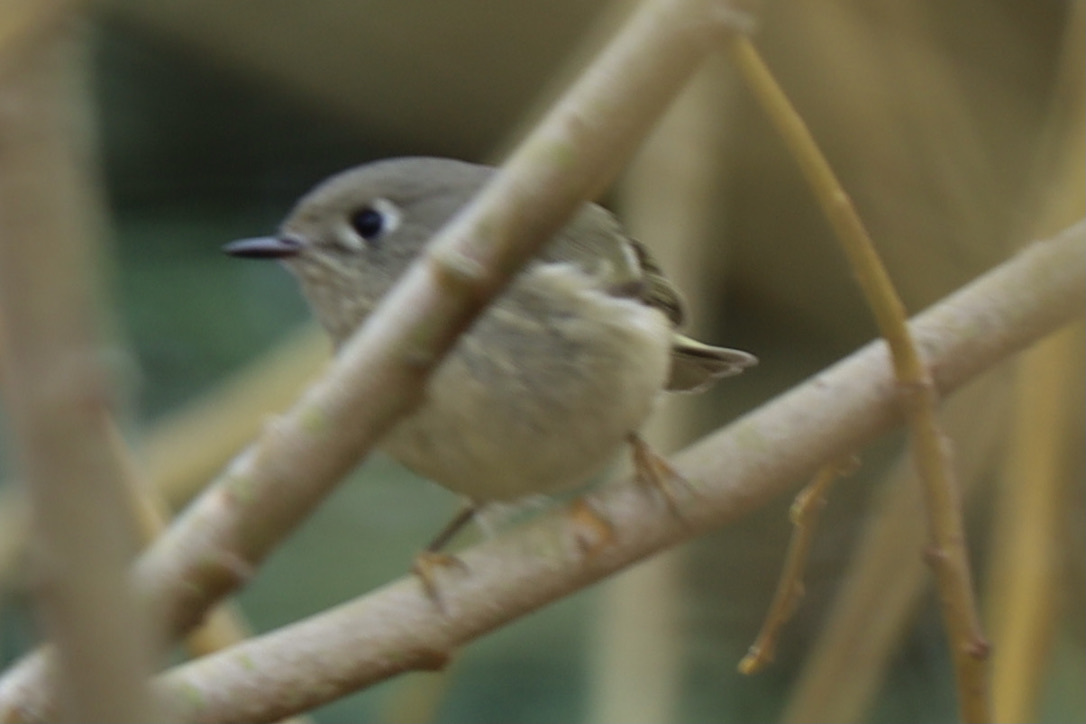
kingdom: Animalia
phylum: Chordata
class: Aves
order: Passeriformes
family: Regulidae
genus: Regulus
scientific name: Regulus calendula
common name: Ruby-crowned kinglet
